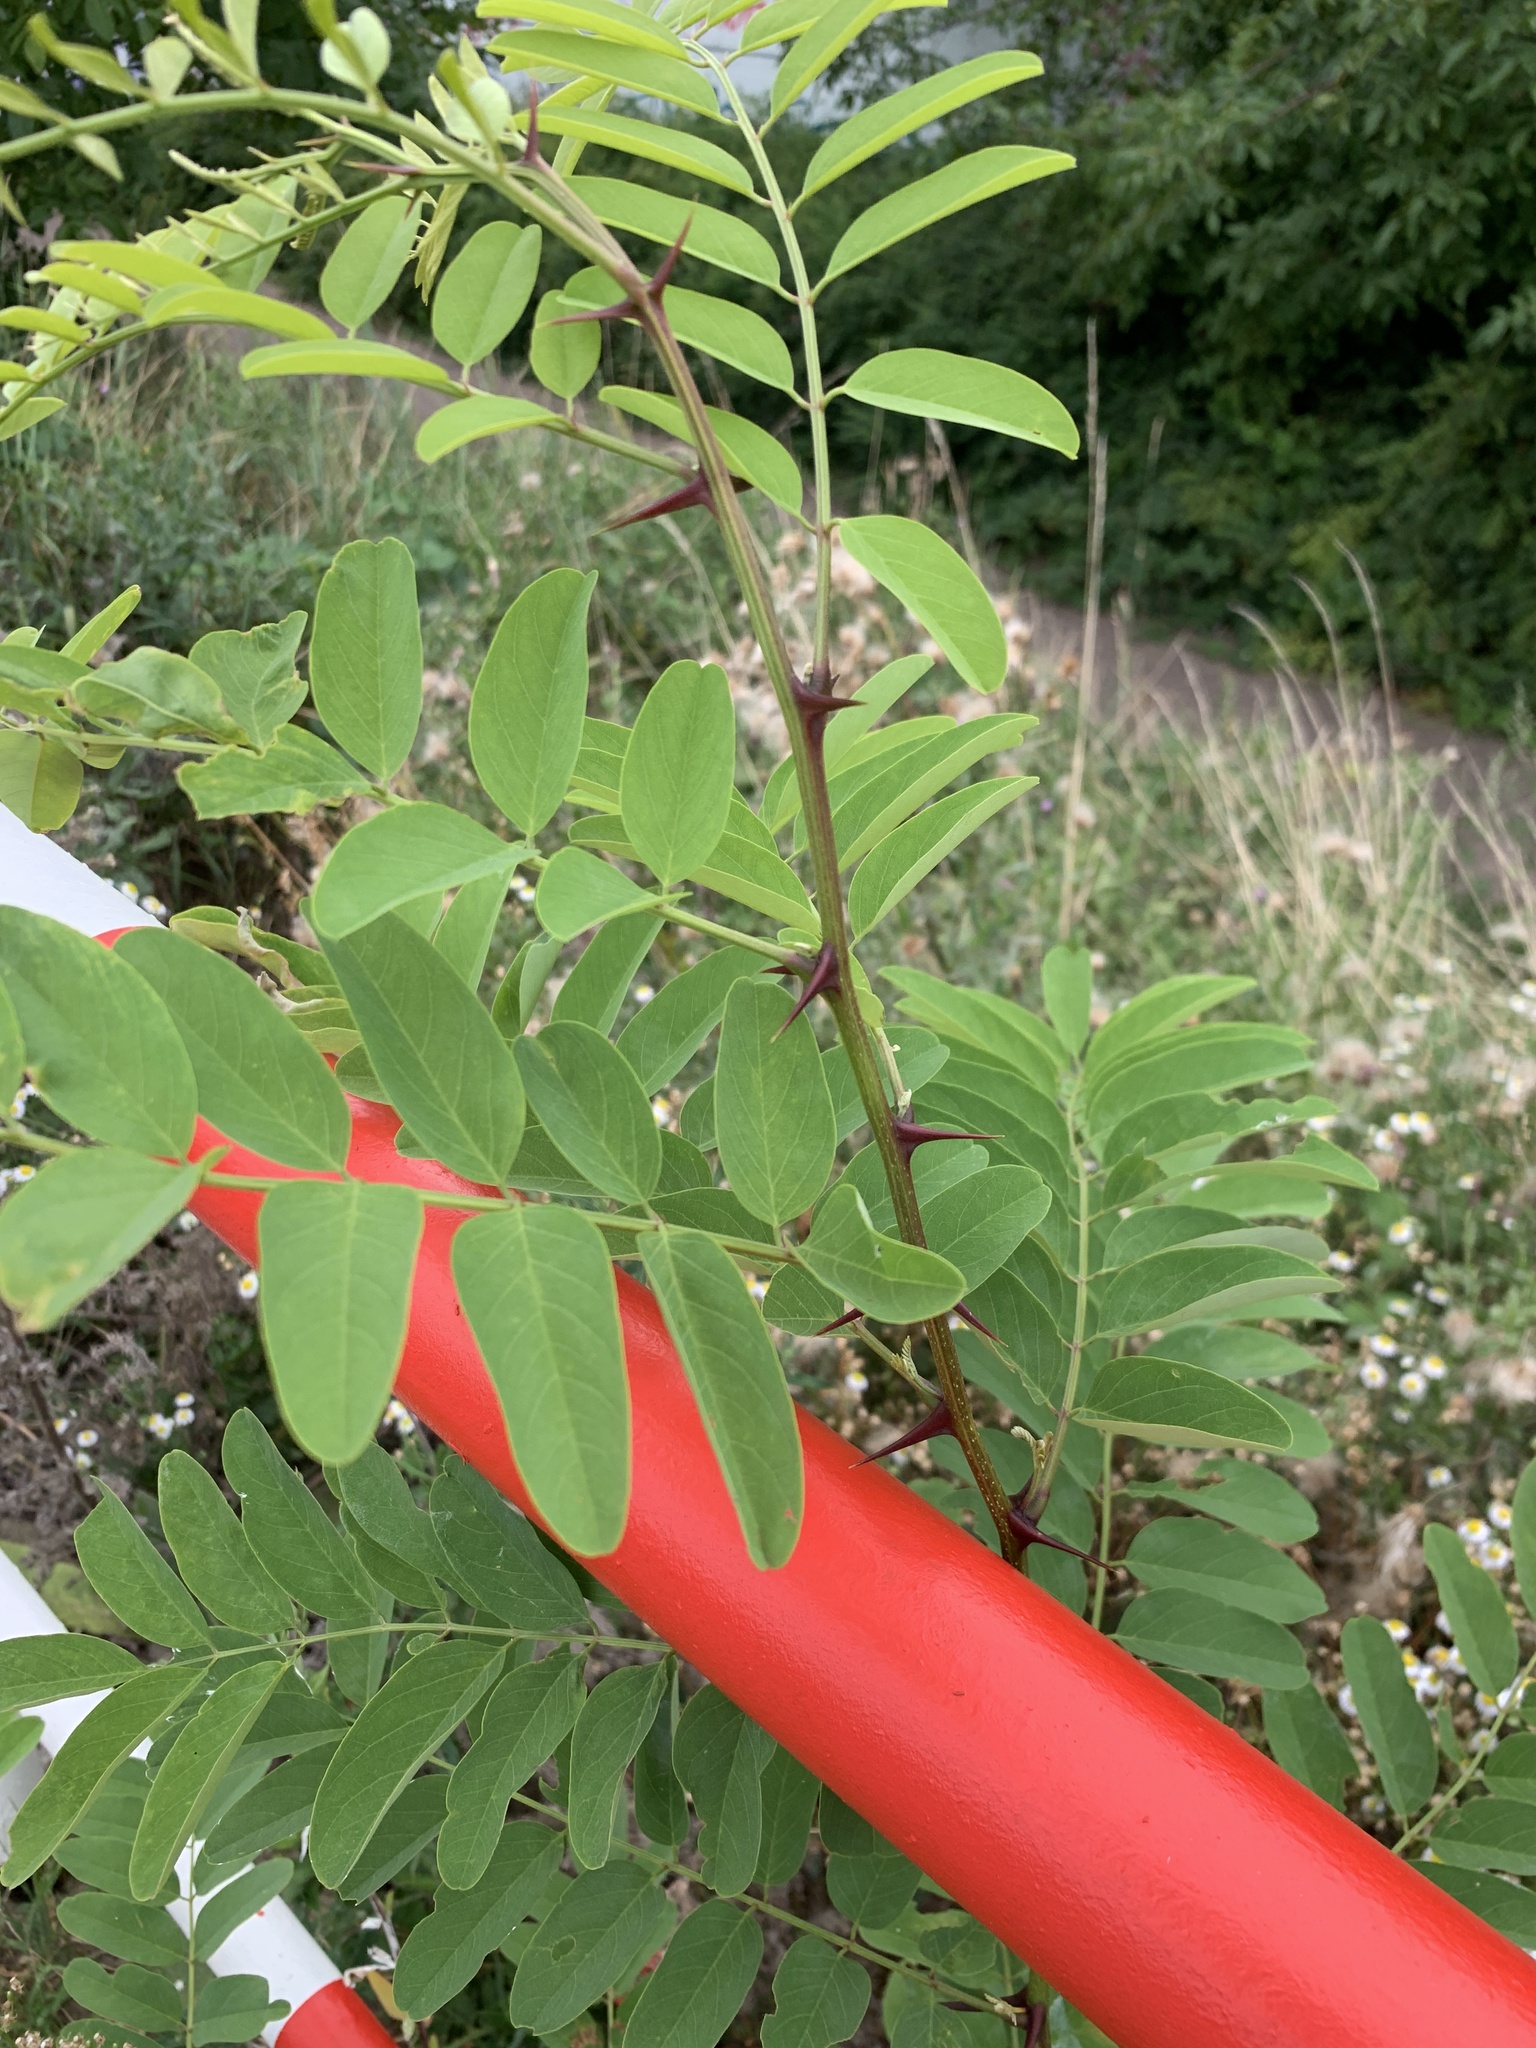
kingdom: Plantae
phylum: Tracheophyta
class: Magnoliopsida
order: Fabales
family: Fabaceae
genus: Robinia
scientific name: Robinia pseudoacacia
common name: Black locust
